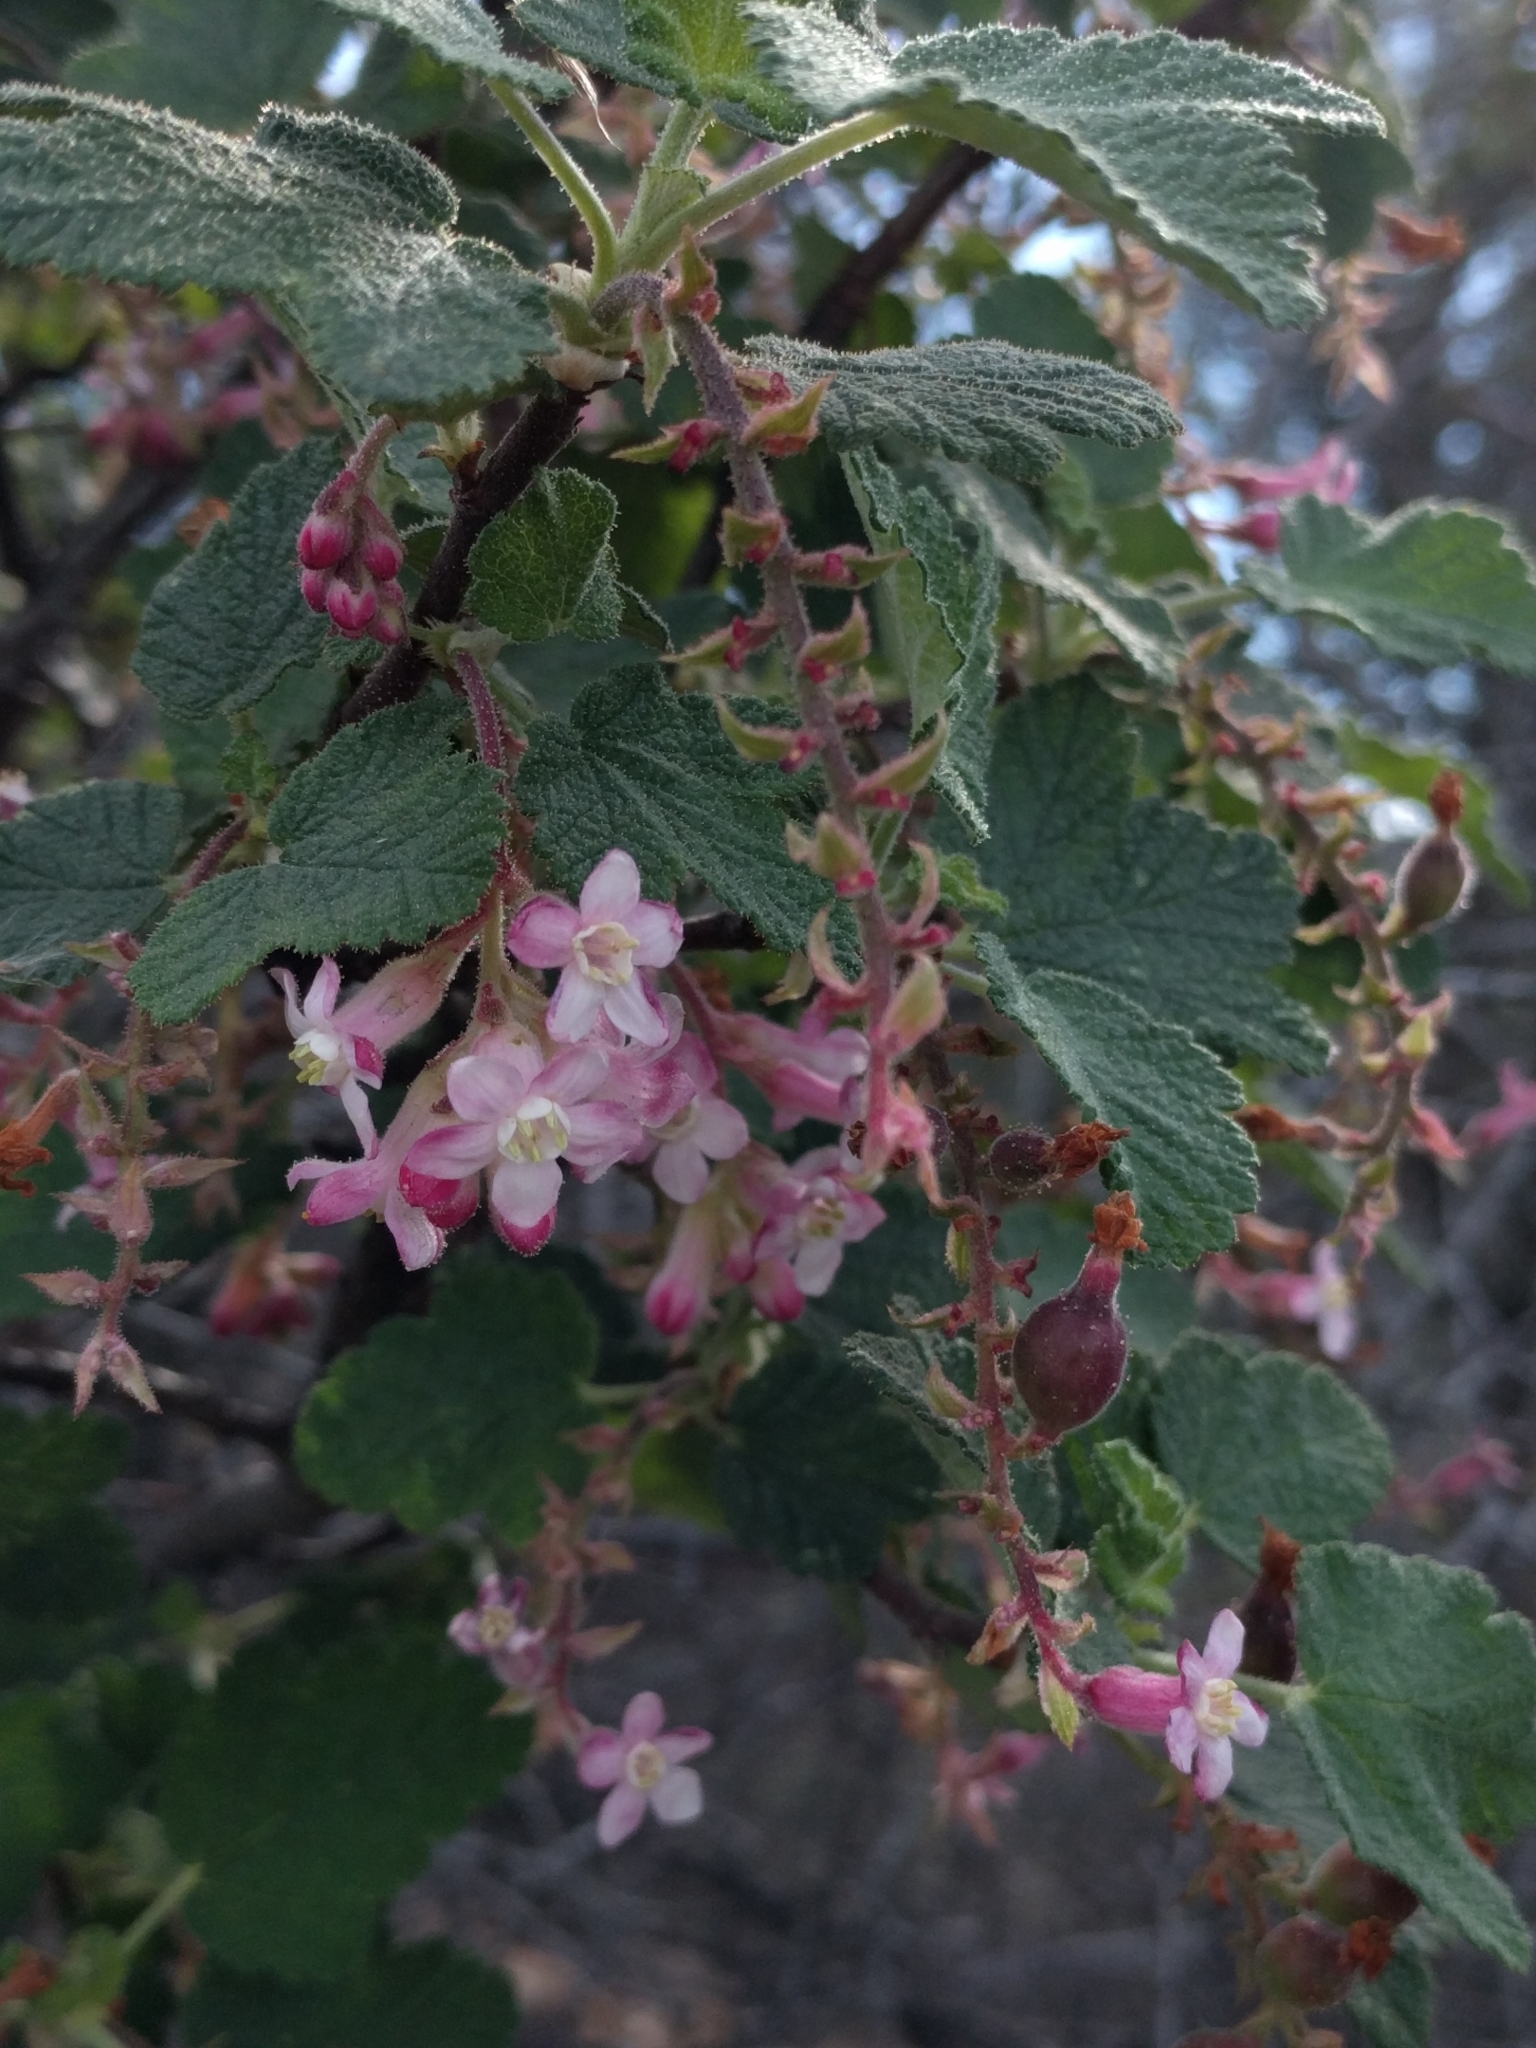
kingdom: Plantae
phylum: Tracheophyta
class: Magnoliopsida
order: Saxifragales
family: Grossulariaceae
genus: Ribes
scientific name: Ribes malvaceum
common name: Chaparral currant
